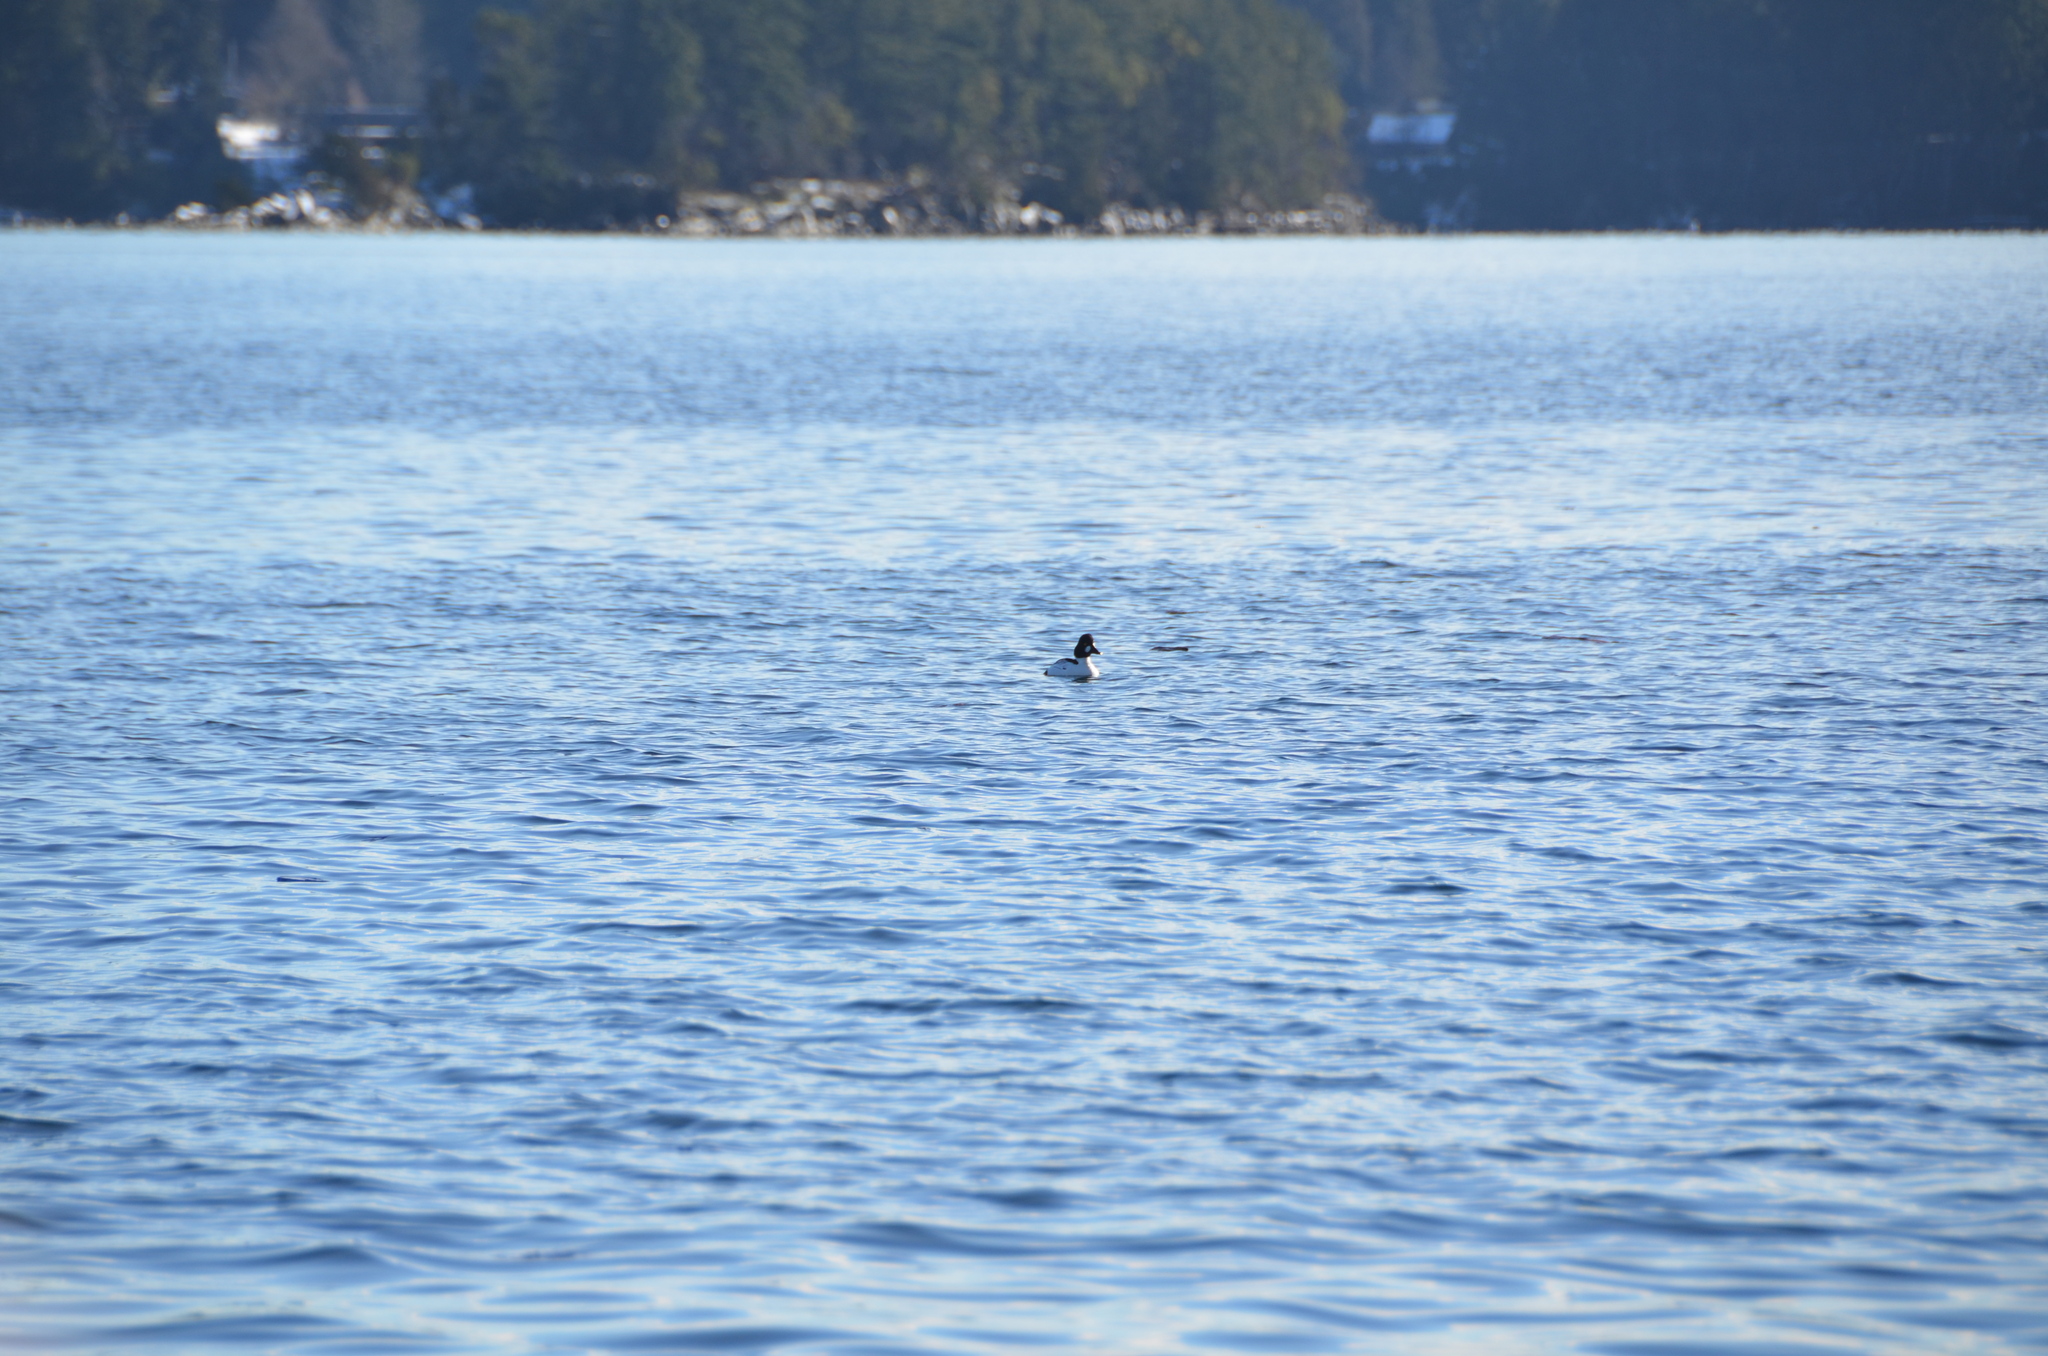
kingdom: Animalia
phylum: Chordata
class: Aves
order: Anseriformes
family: Anatidae
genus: Bucephala
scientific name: Bucephala clangula
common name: Common goldeneye
